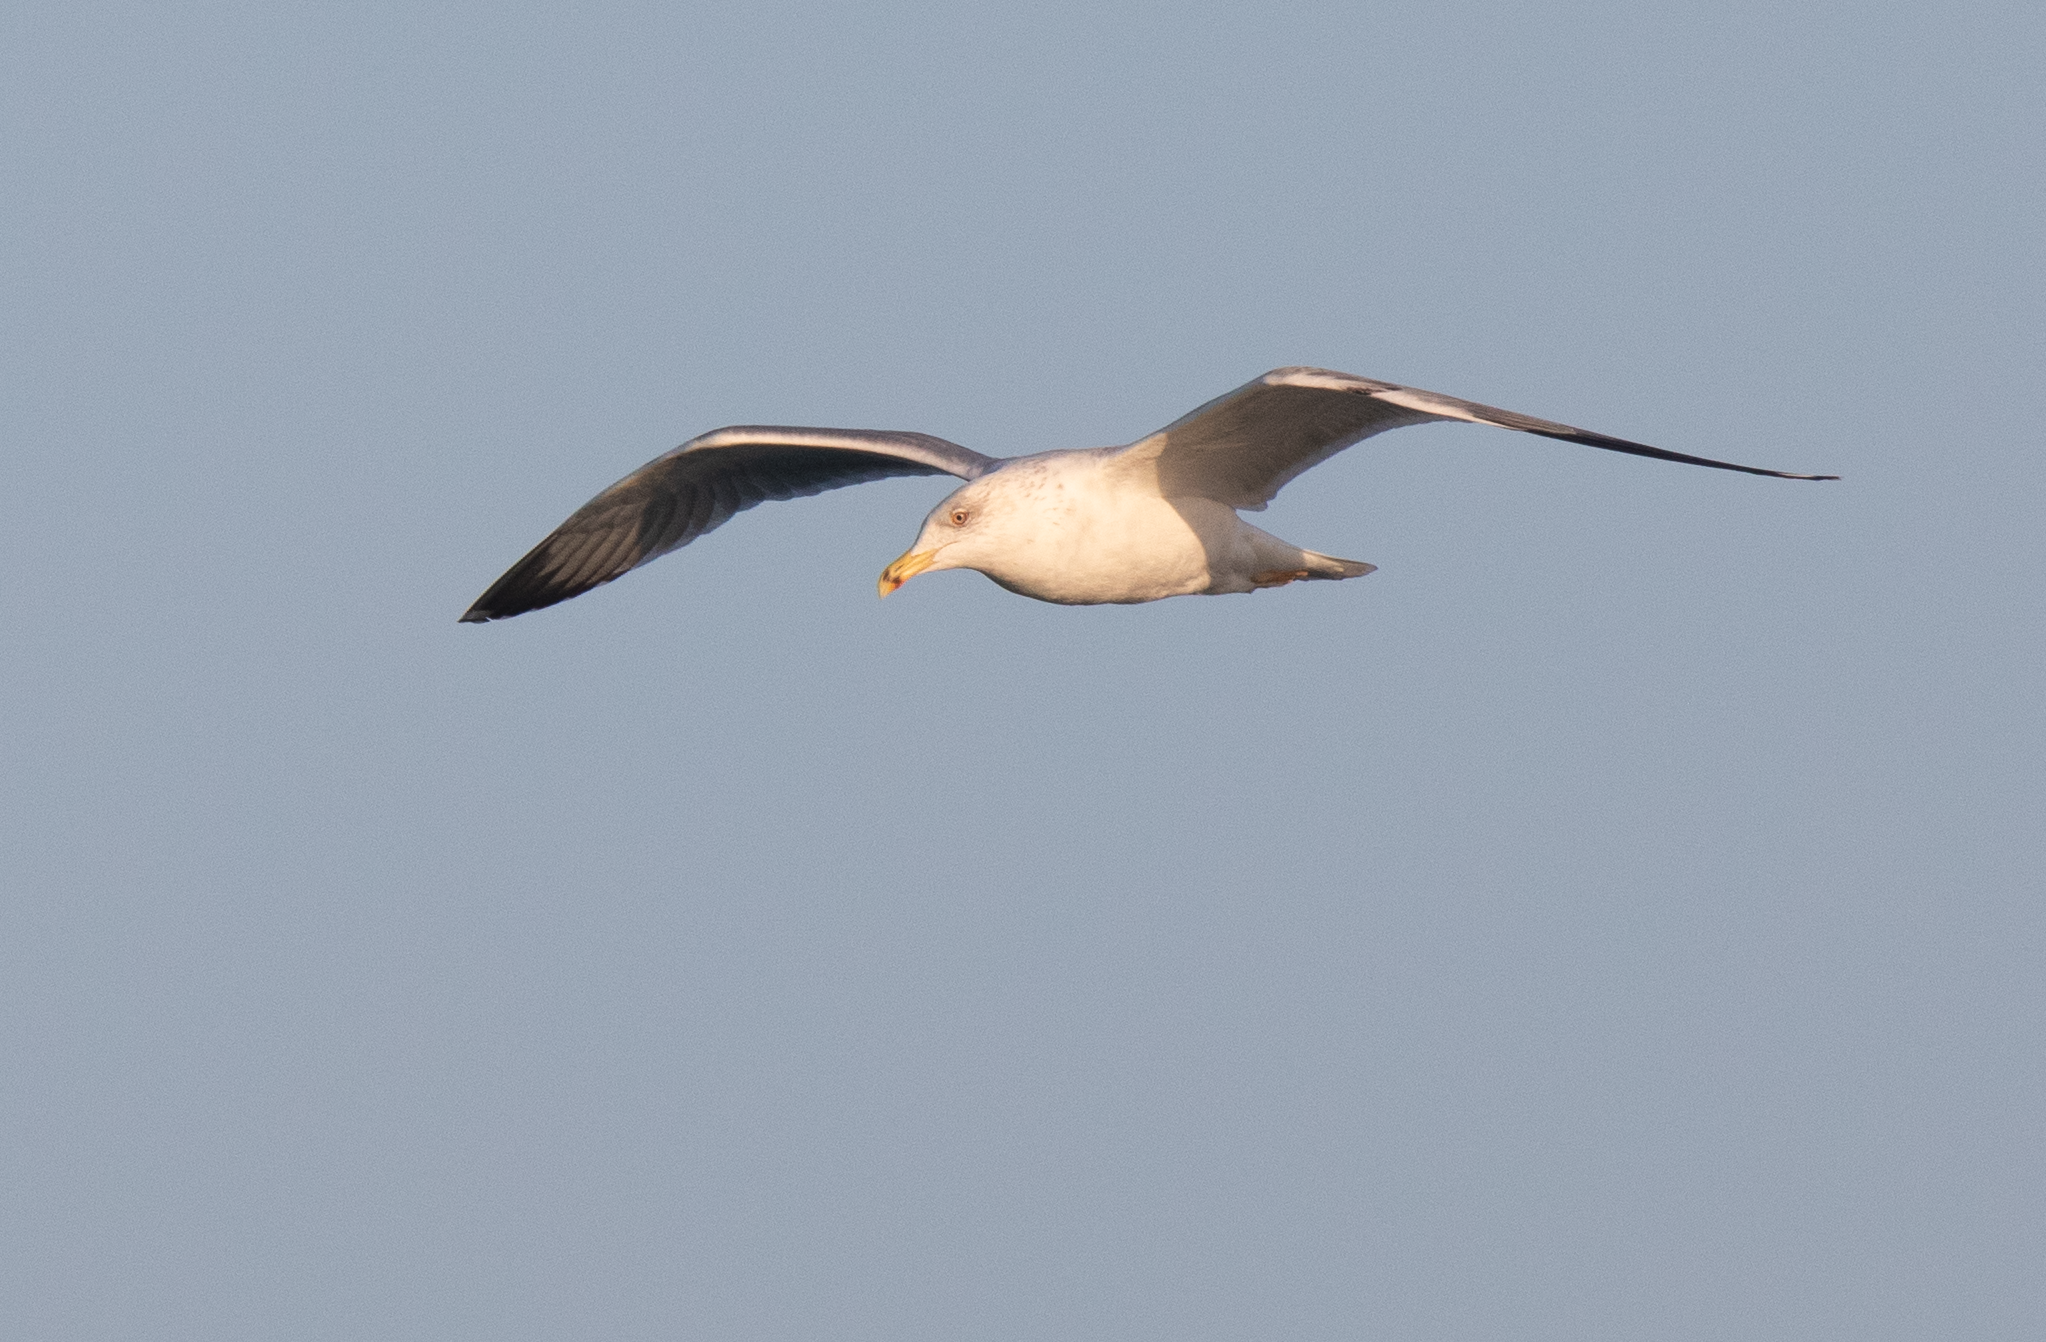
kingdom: Animalia
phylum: Chordata
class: Aves
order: Charadriiformes
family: Laridae
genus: Larus
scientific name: Larus michahellis
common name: Yellow-legged gull
